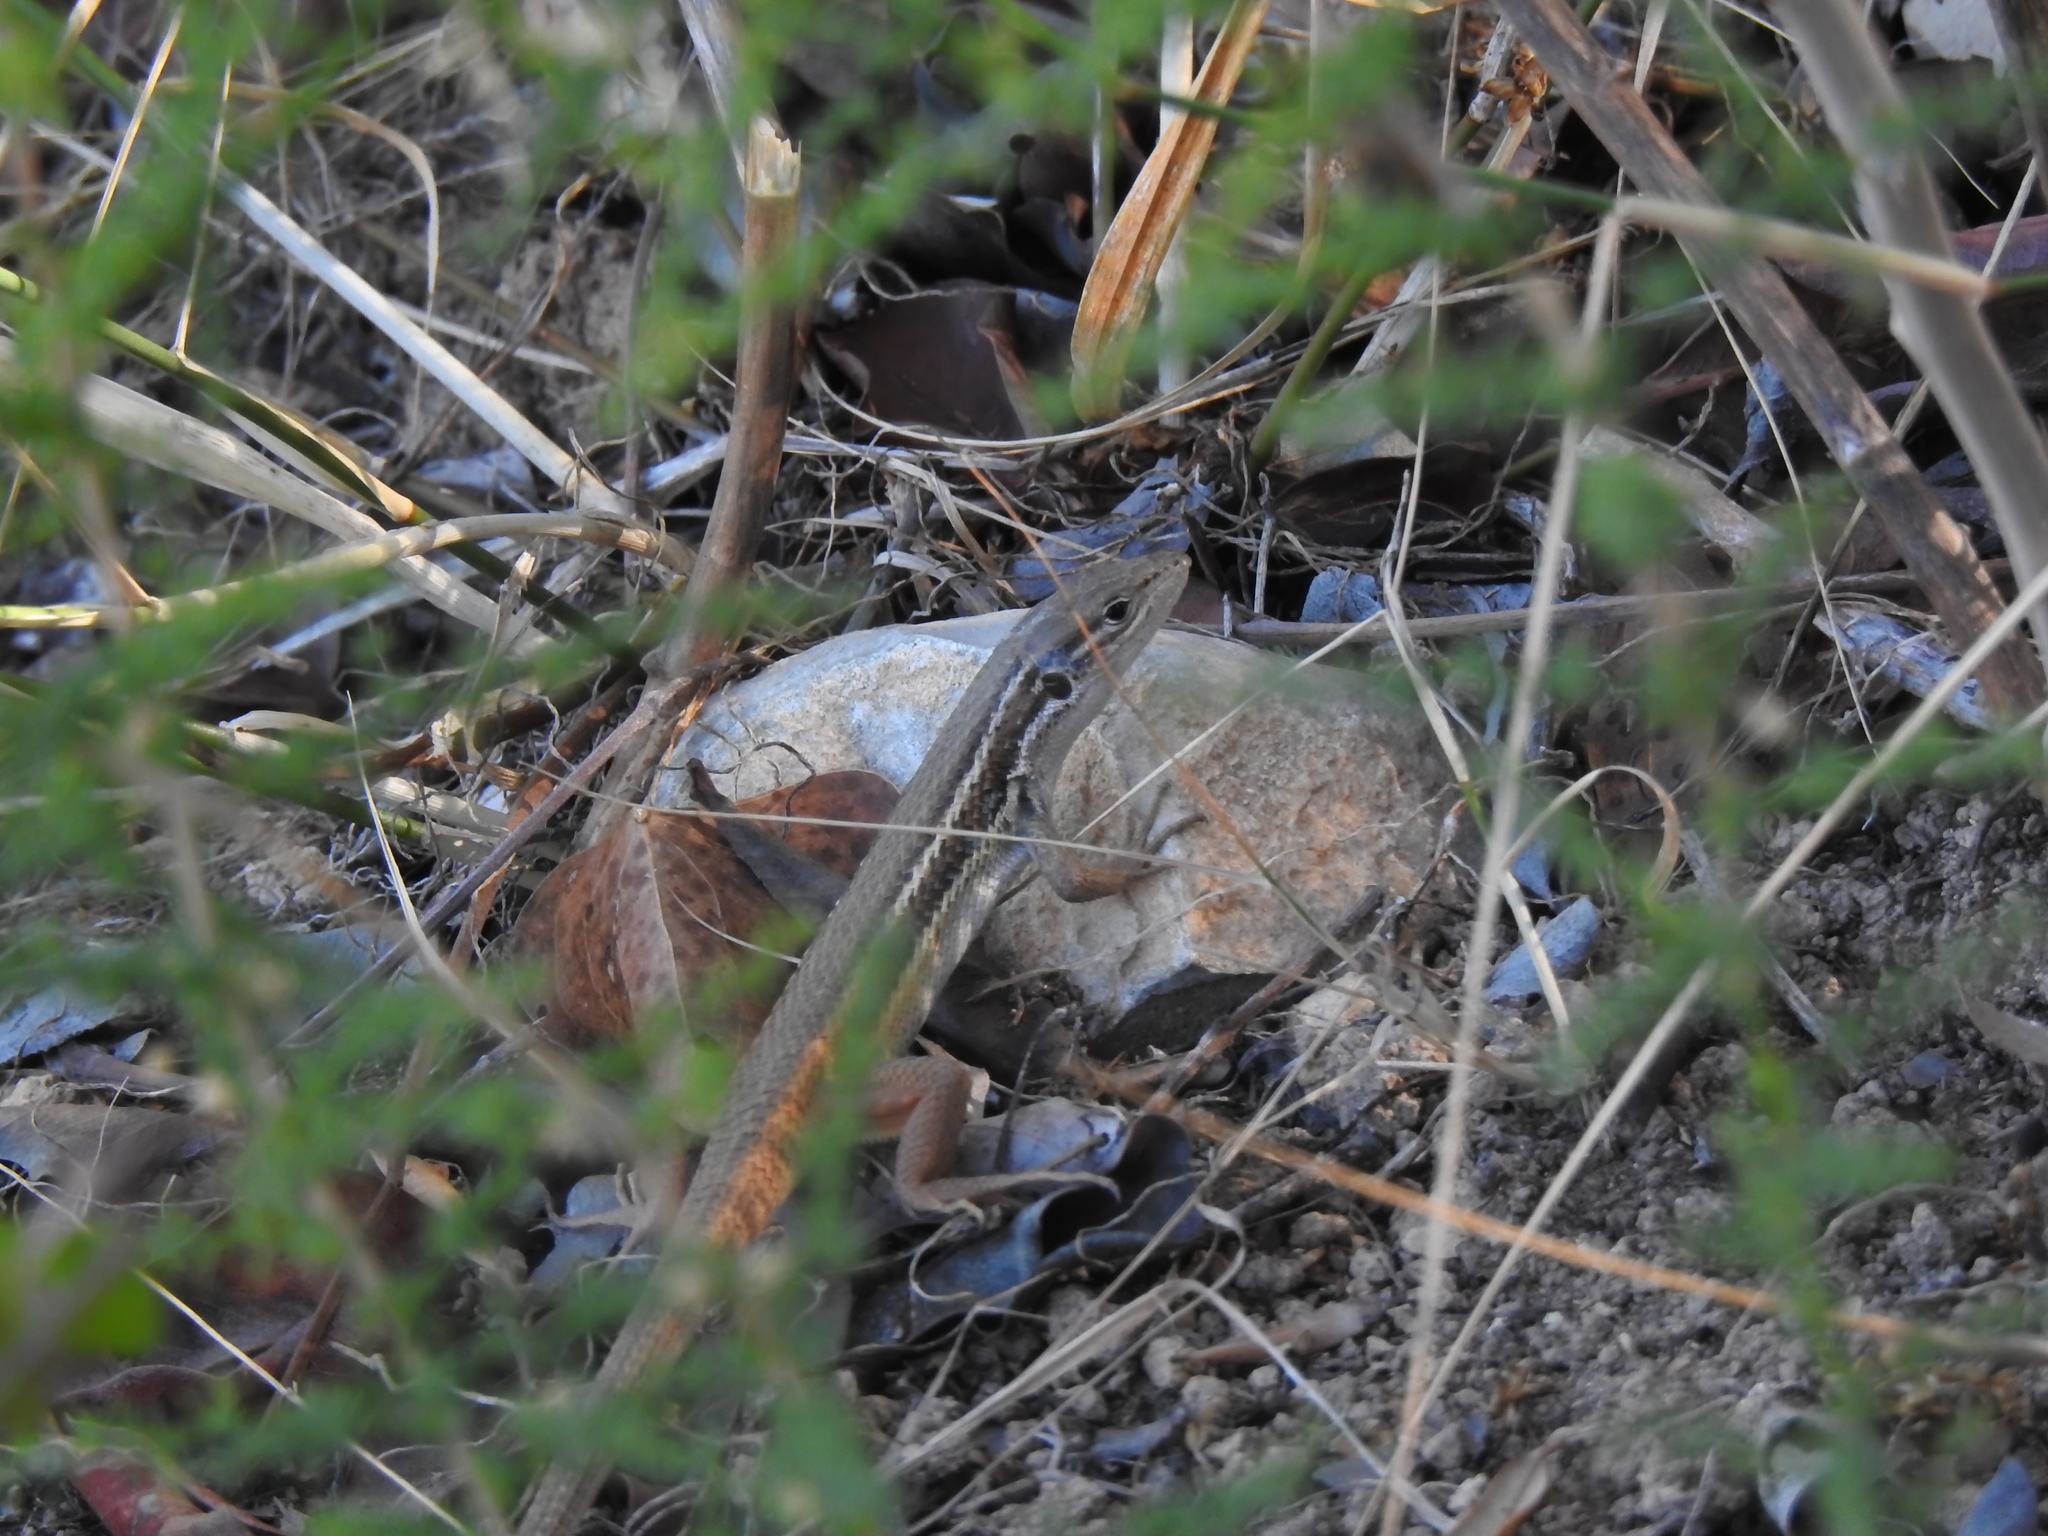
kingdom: Animalia
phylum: Chordata
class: Squamata
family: Lacertidae
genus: Psammodromus
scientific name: Psammodromus algirus
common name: Algerian psammodromus
